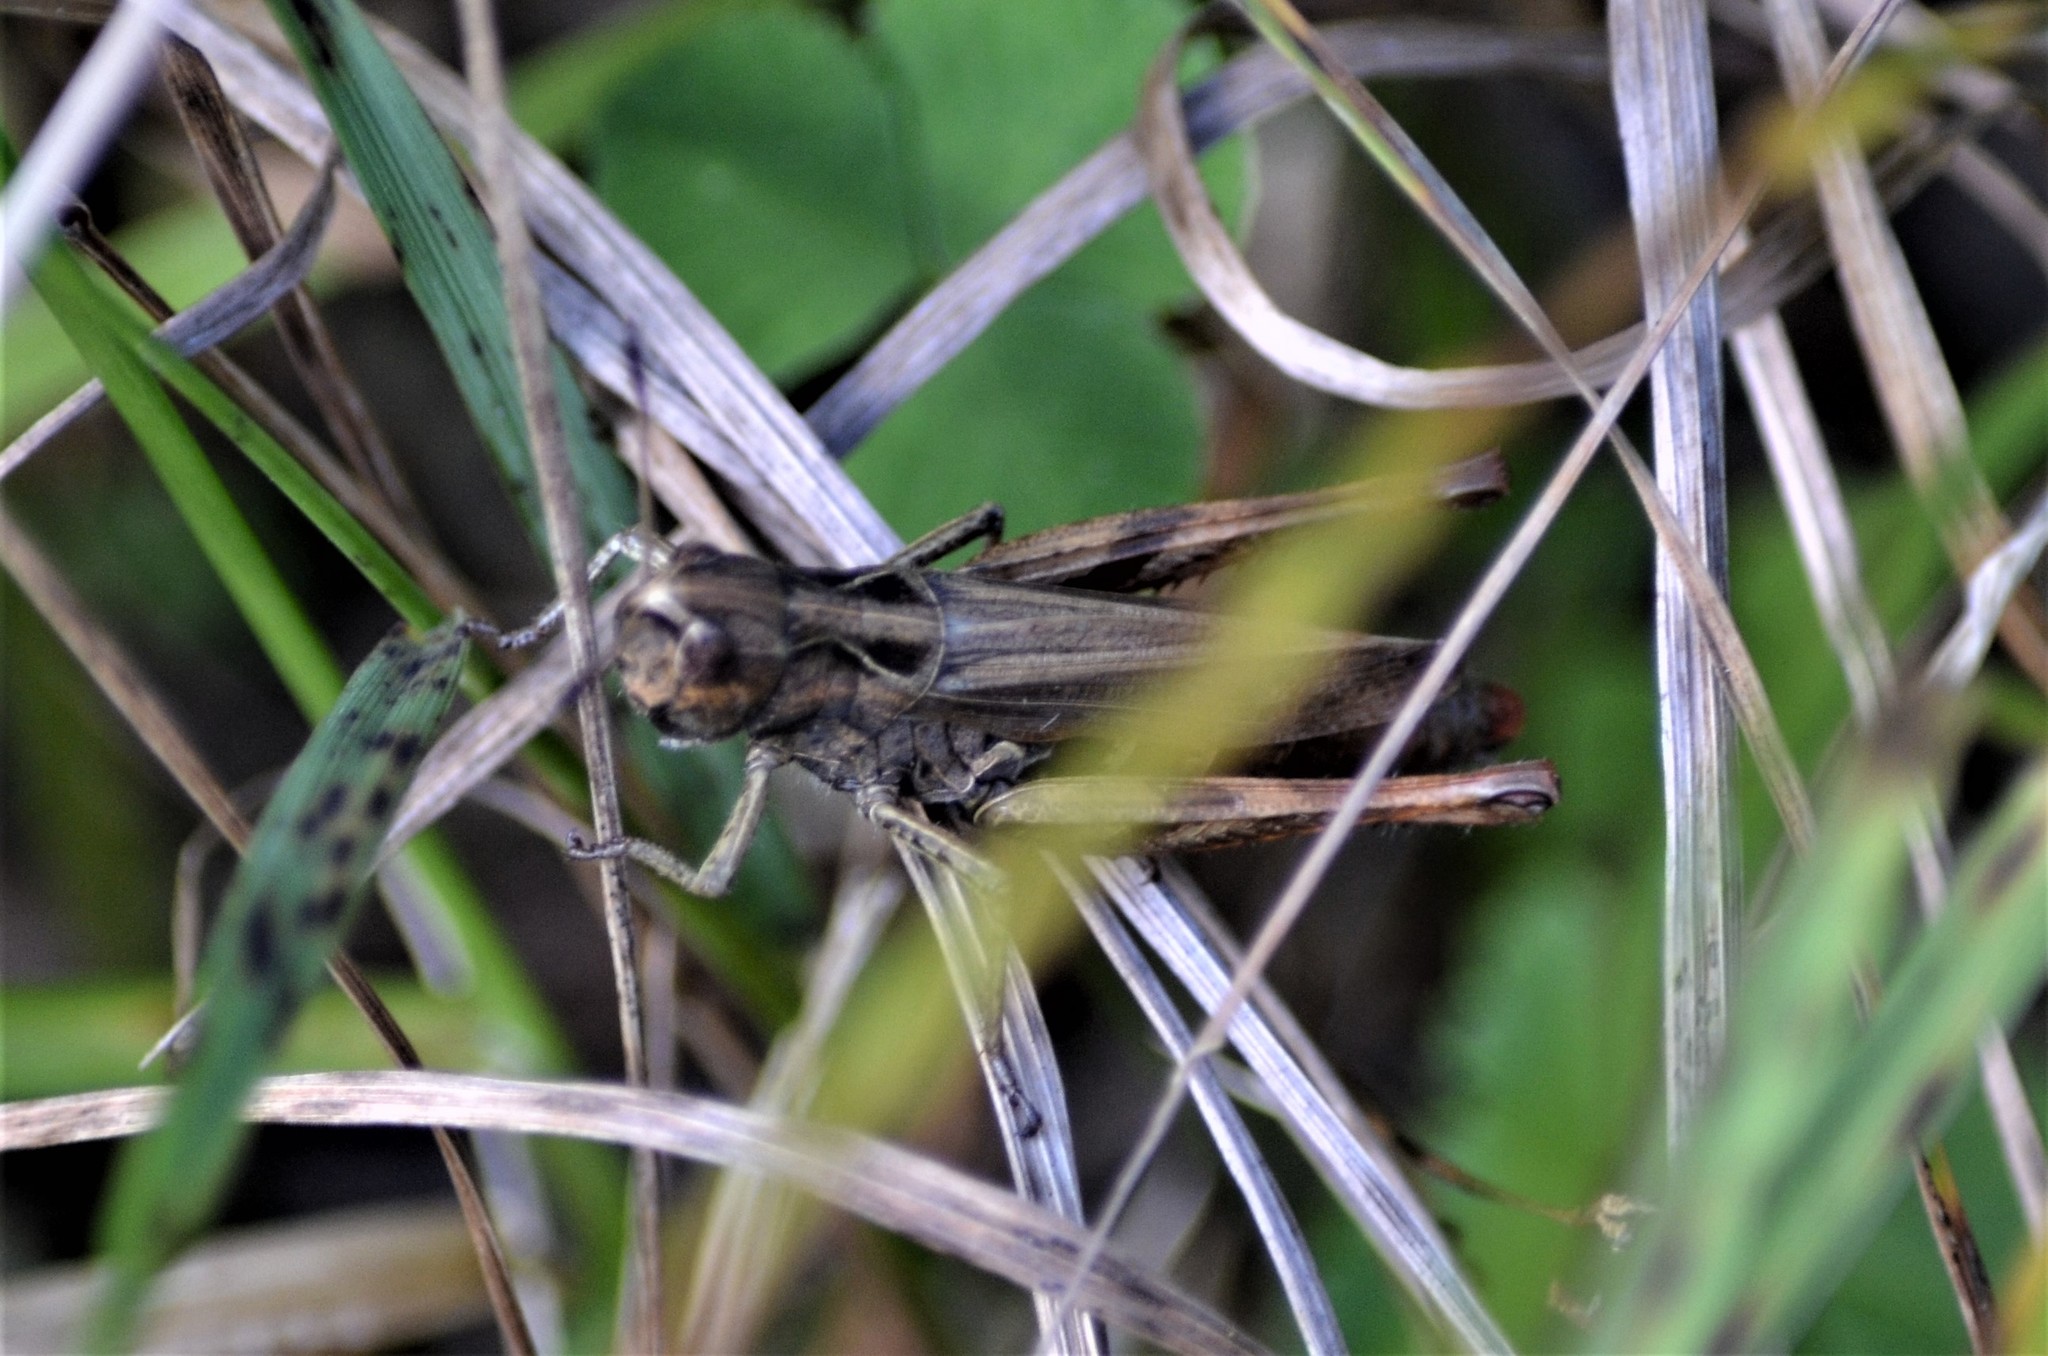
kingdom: Animalia
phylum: Arthropoda
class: Insecta
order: Orthoptera
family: Acrididae
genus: Gomphocerippus
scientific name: Gomphocerippus rufus
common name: Rufous grasshopper
